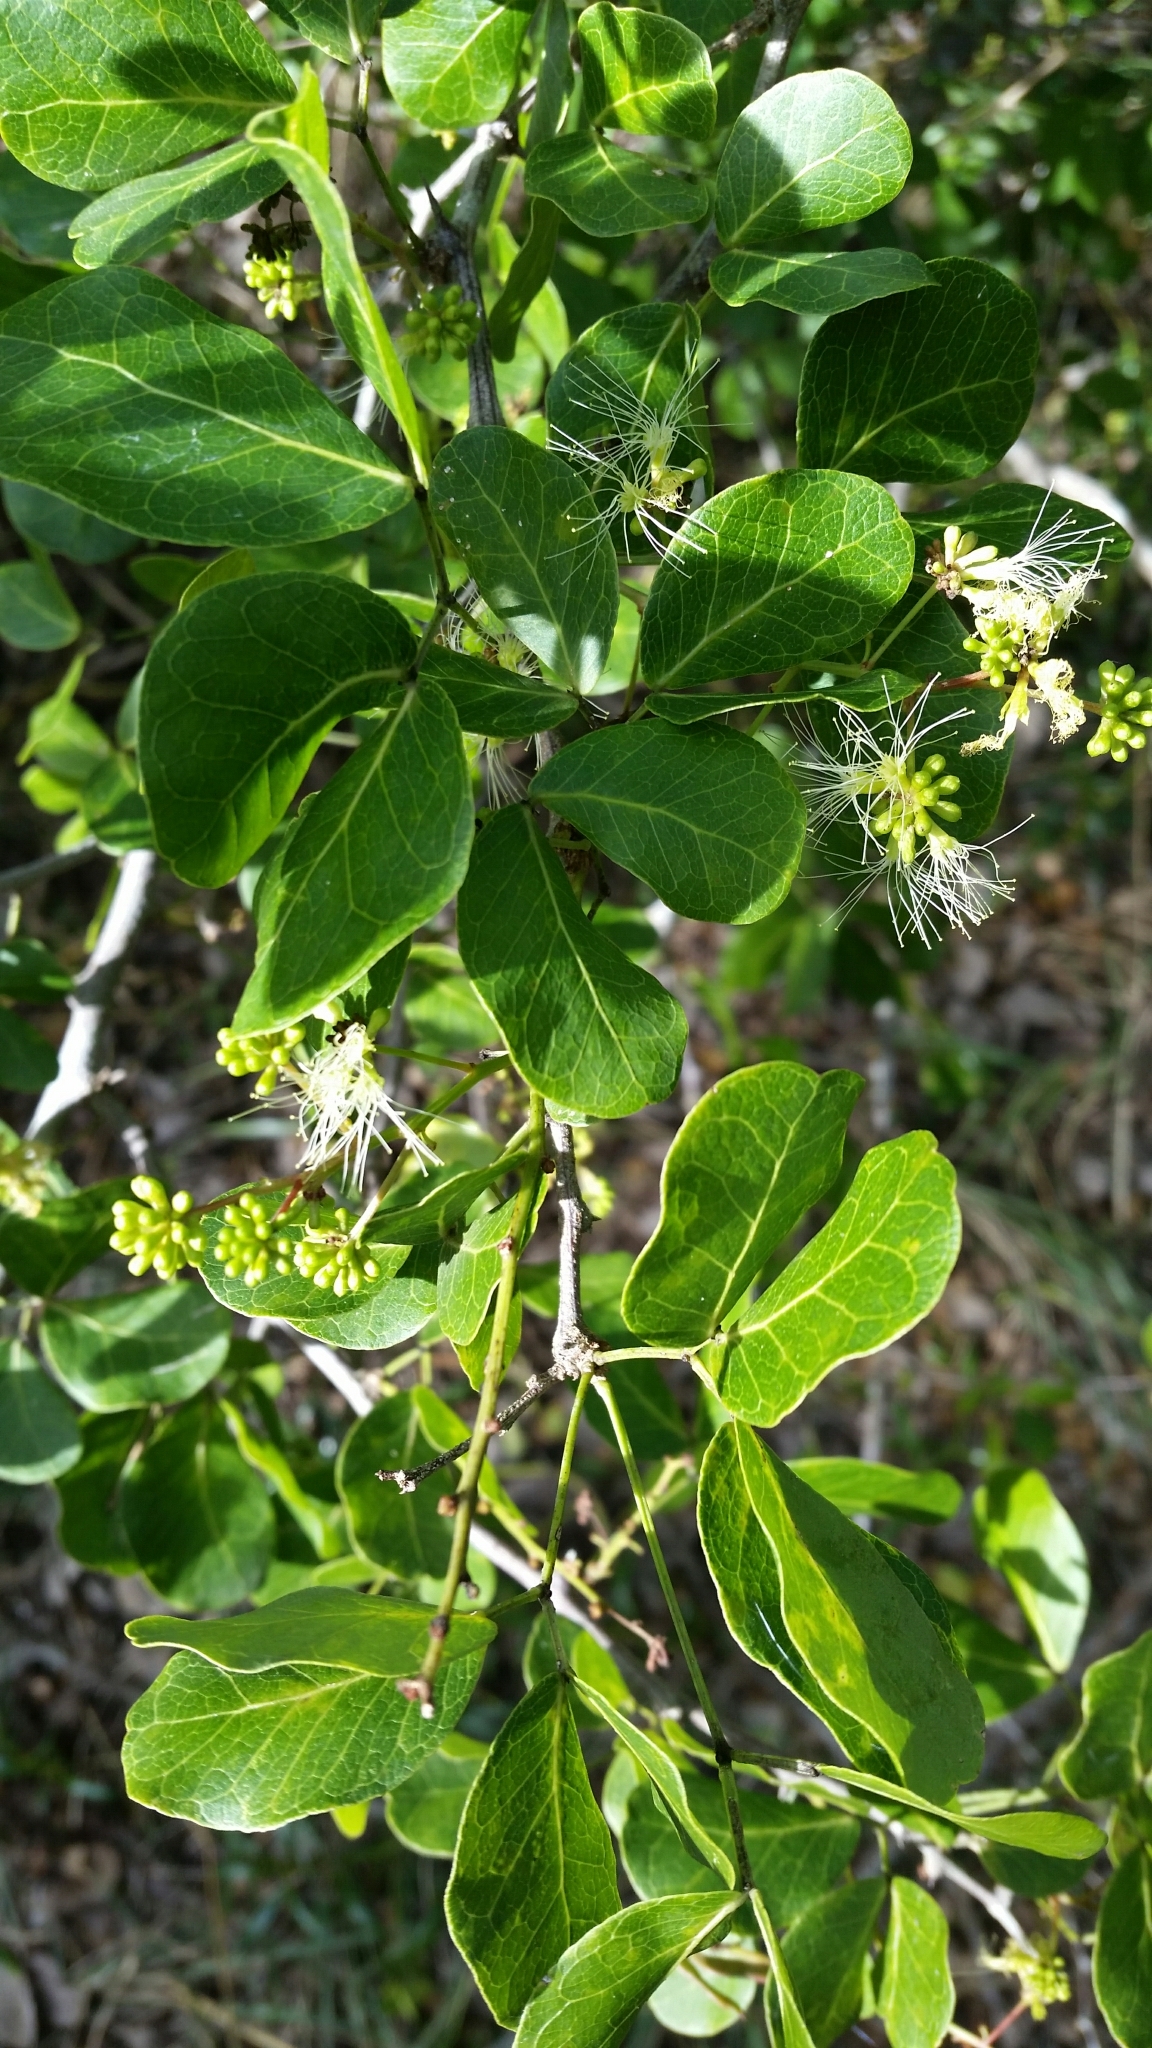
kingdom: Plantae
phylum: Tracheophyta
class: Magnoliopsida
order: Fabales
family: Fabaceae
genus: Pithecellobium
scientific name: Pithecellobium unguis-cati
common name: Cat's-claw
